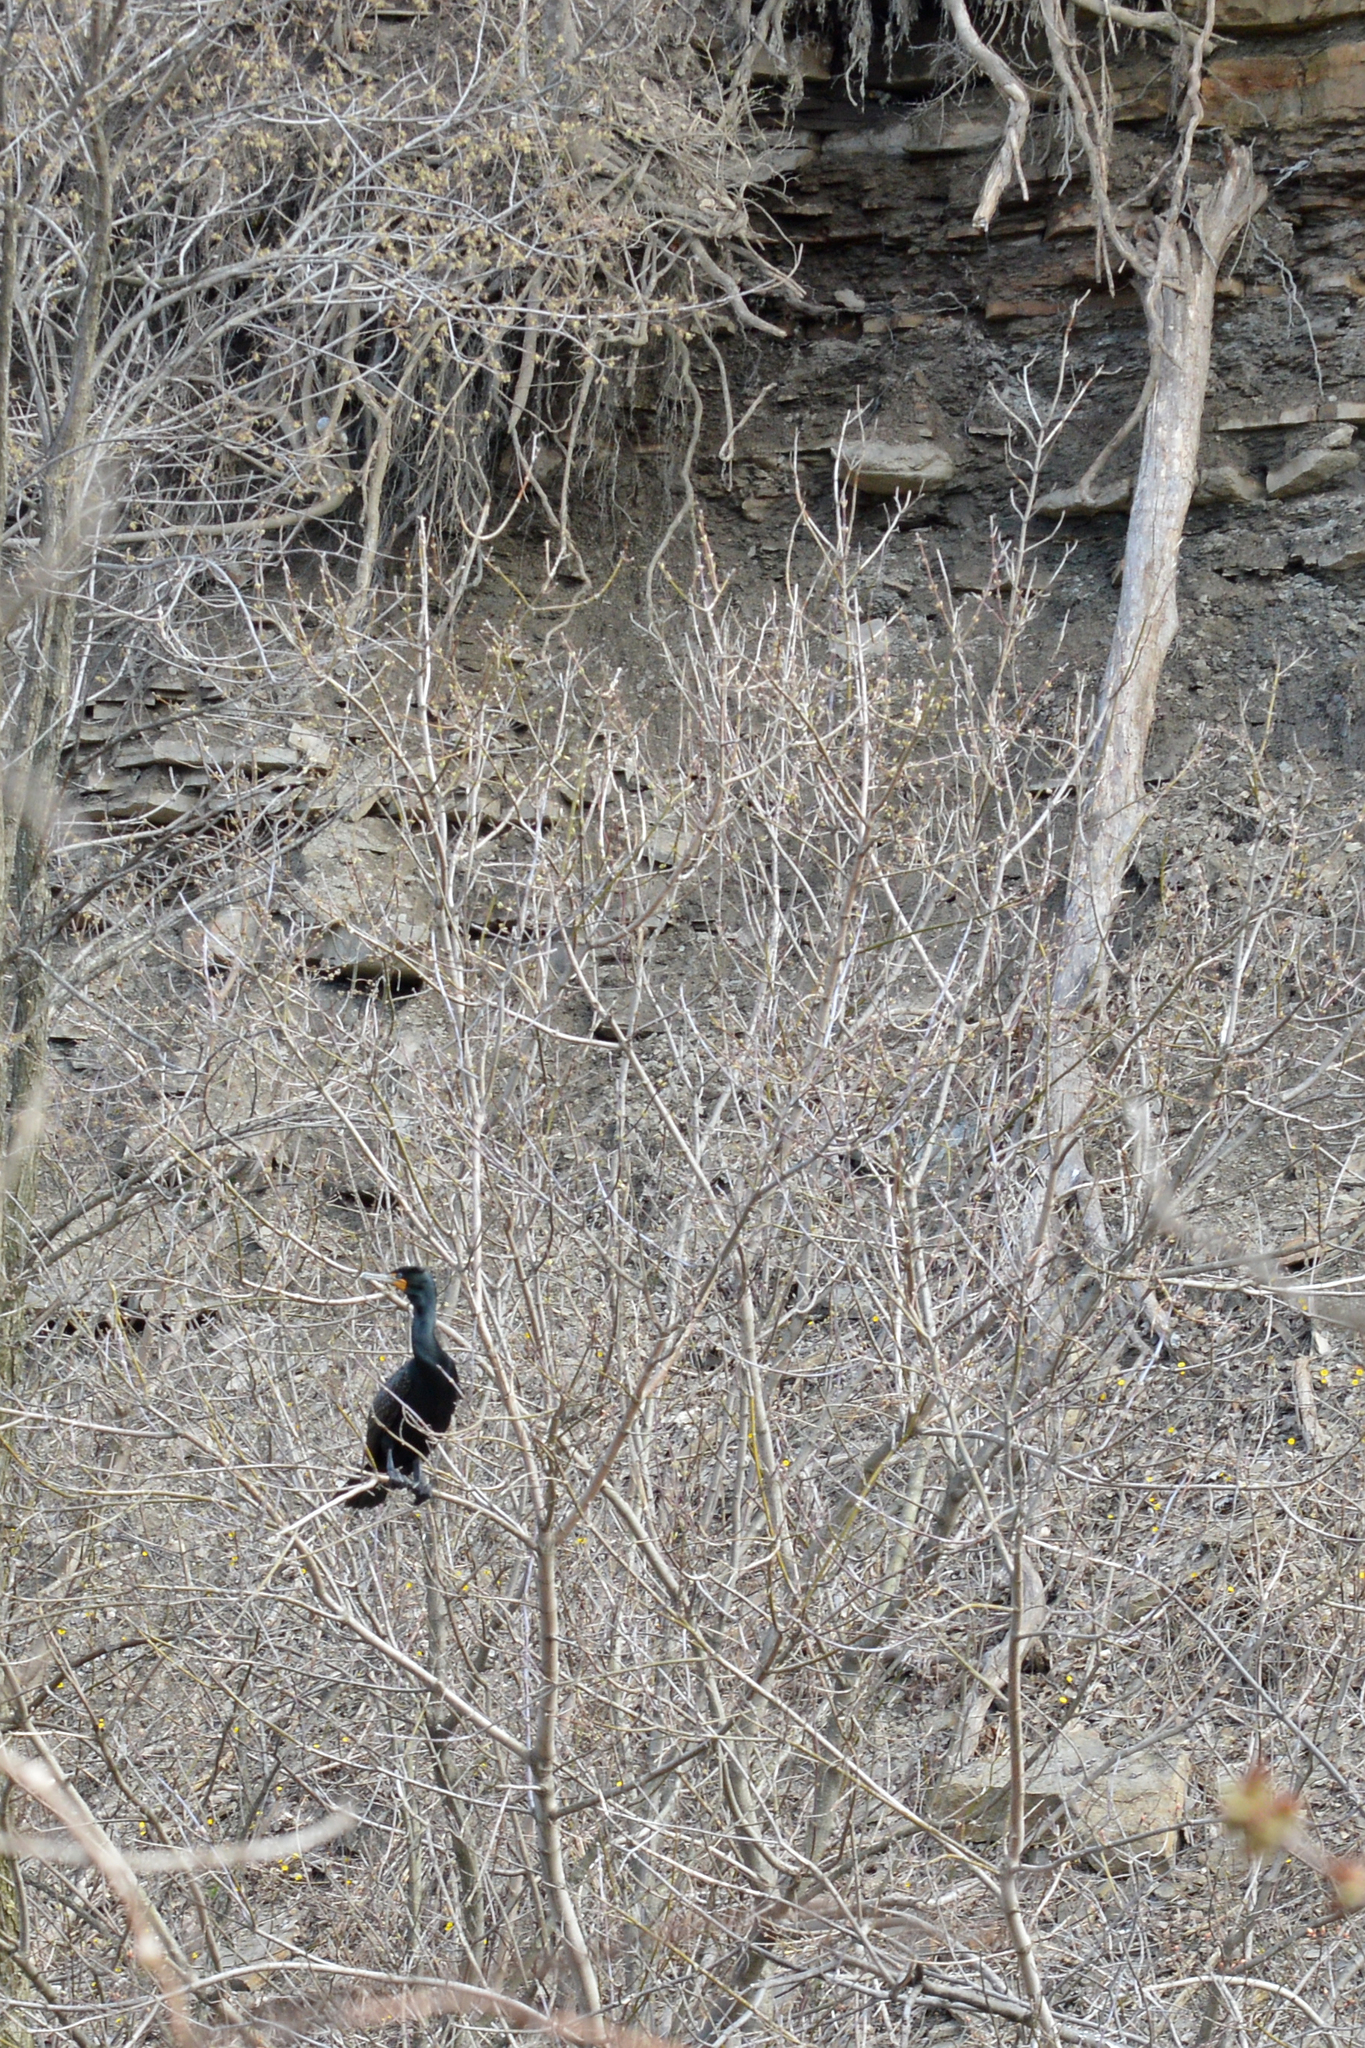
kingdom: Animalia
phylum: Chordata
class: Aves
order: Suliformes
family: Phalacrocoracidae
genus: Phalacrocorax
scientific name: Phalacrocorax auritus
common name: Double-crested cormorant
